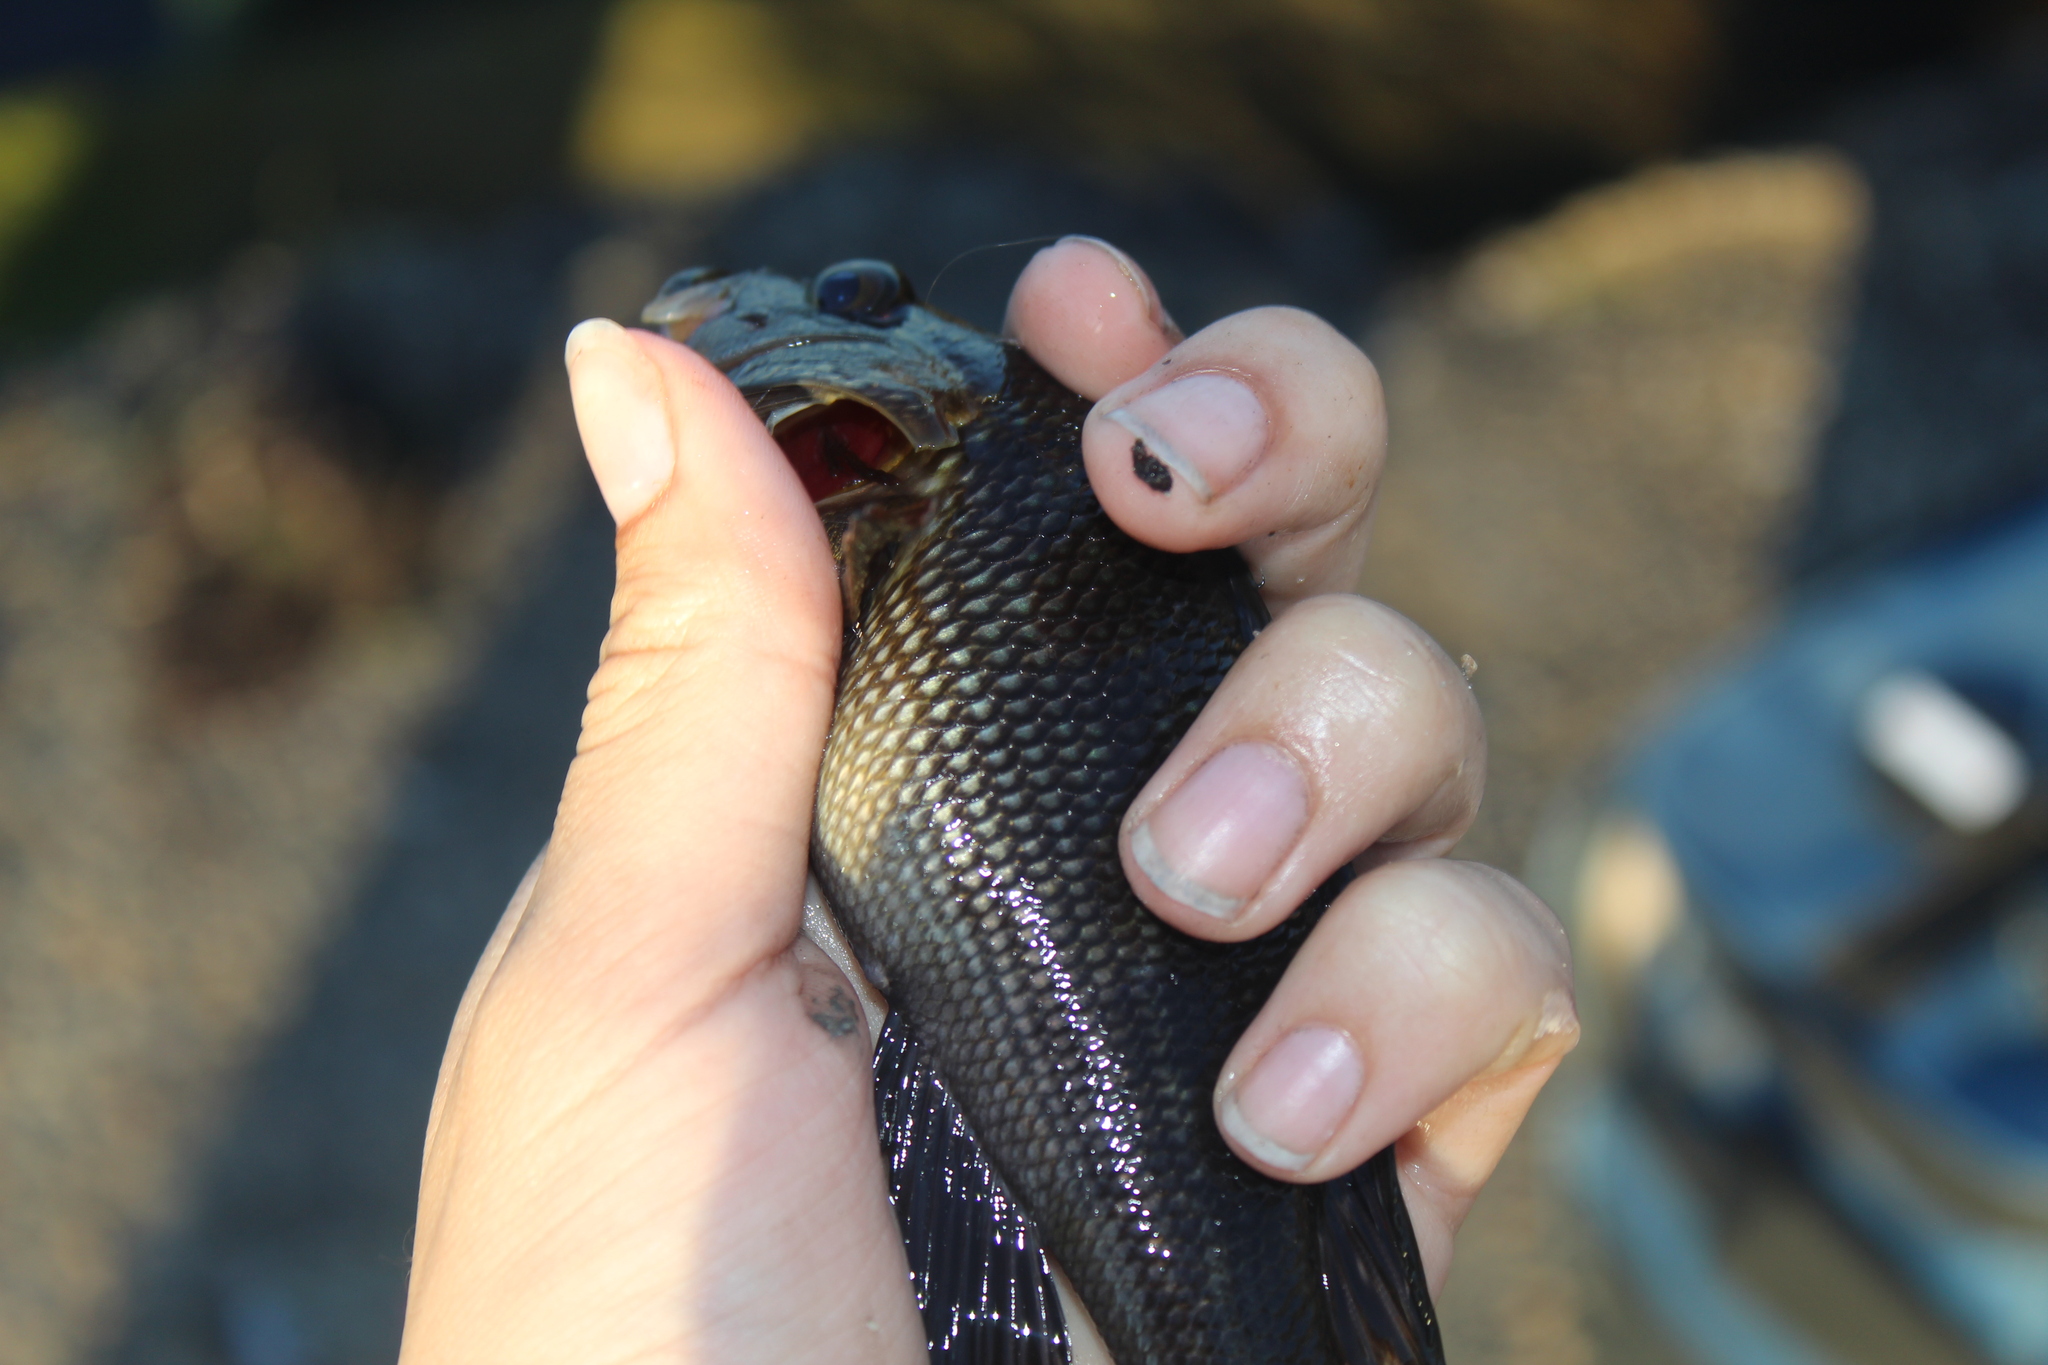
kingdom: Animalia
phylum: Chordata
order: Perciformes
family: Serranidae
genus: Centropristis
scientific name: Centropristis striata
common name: Black sea bass
